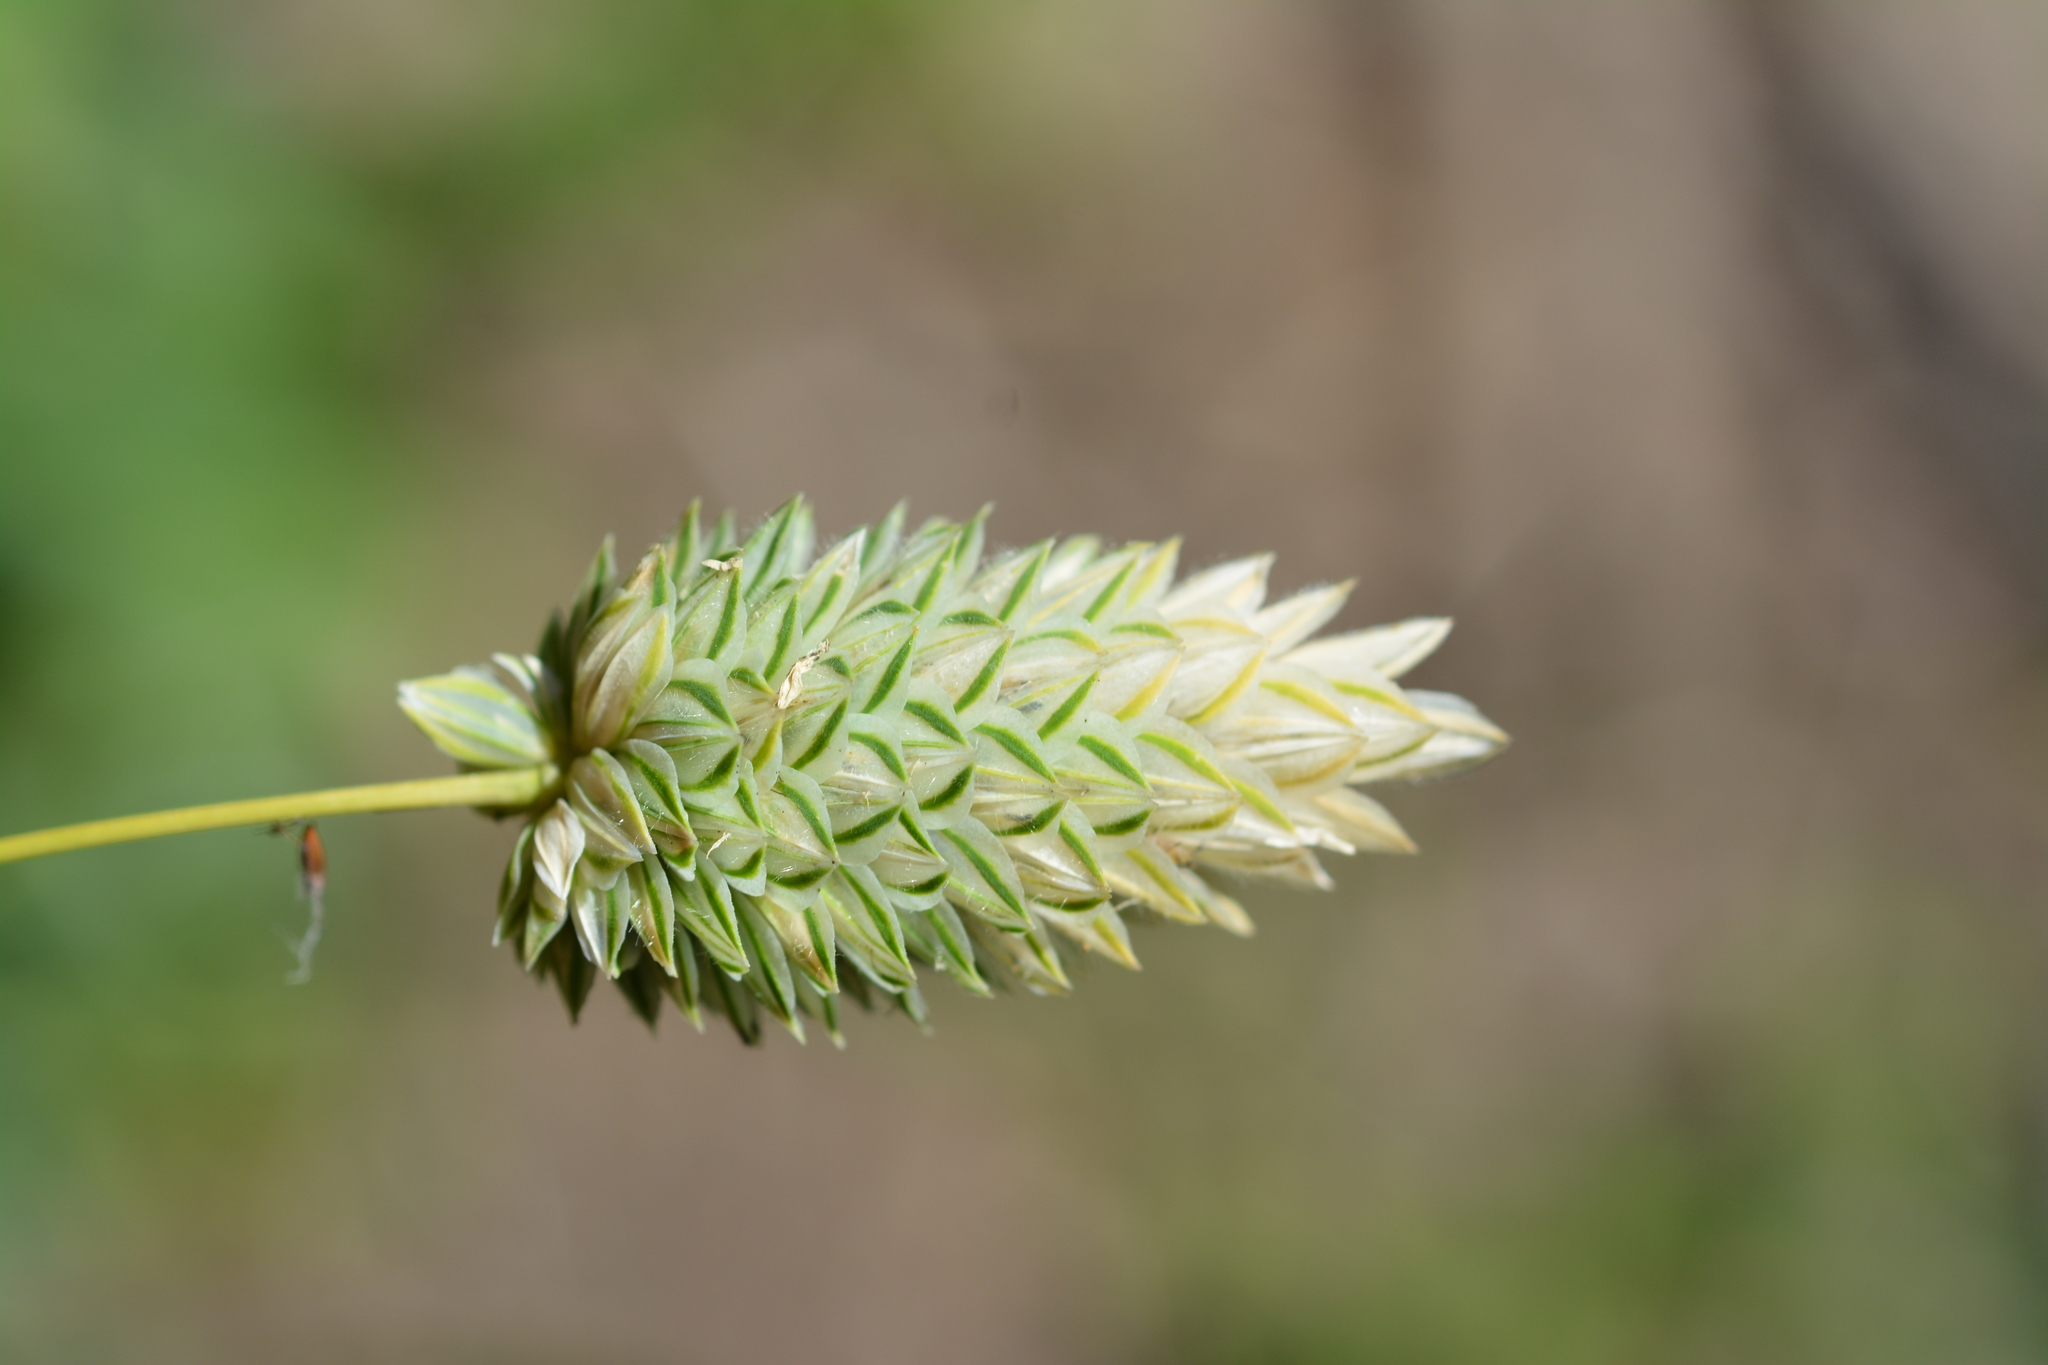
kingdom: Plantae
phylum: Tracheophyta
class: Liliopsida
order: Poales
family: Poaceae
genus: Phalaris
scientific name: Phalaris canariensis
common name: Annual canarygrass
